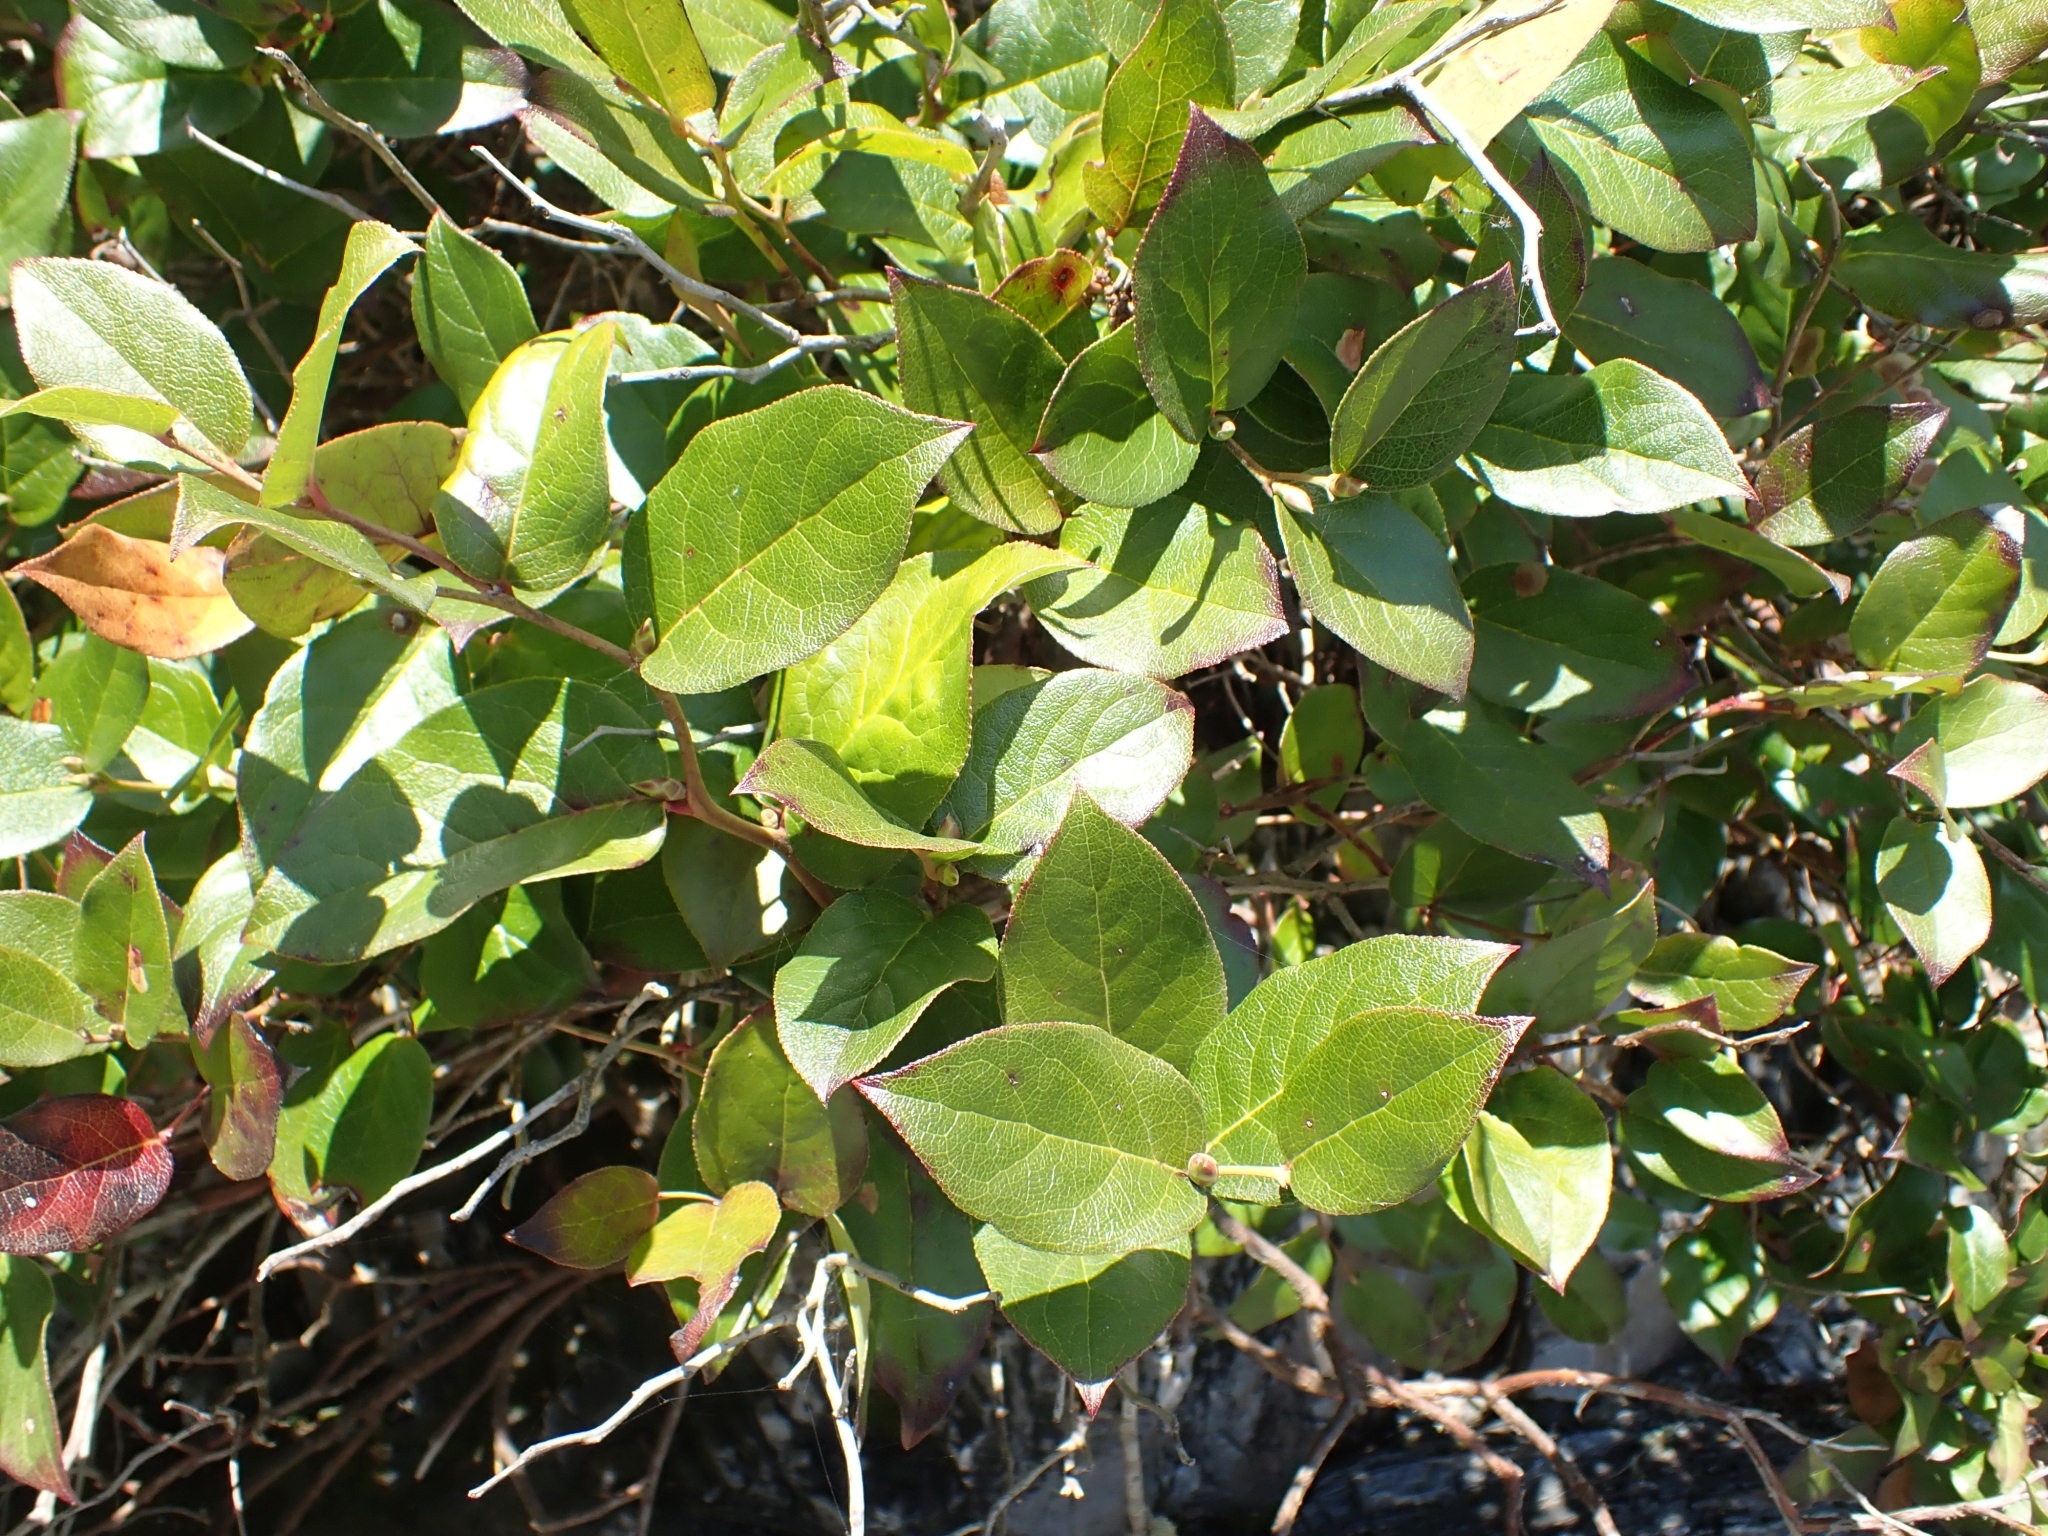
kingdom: Plantae
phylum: Tracheophyta
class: Magnoliopsida
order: Ericales
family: Ericaceae
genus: Gaultheria
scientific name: Gaultheria shallon
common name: Shallon
